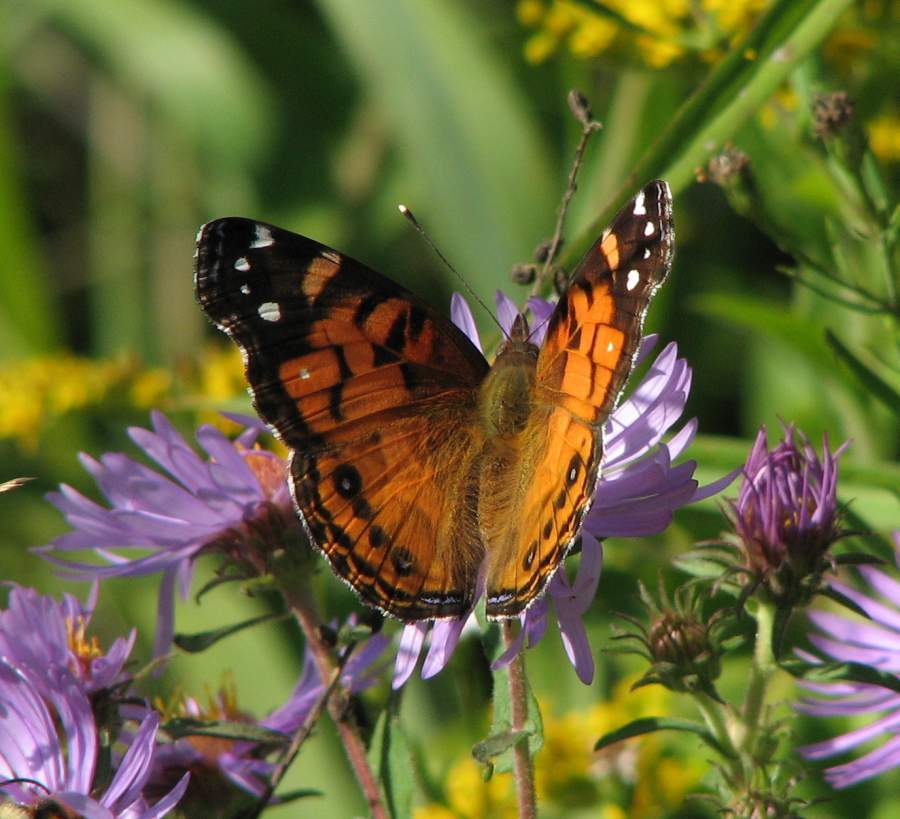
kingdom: Animalia
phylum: Arthropoda
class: Insecta
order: Lepidoptera
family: Nymphalidae
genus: Vanessa
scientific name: Vanessa virginiensis
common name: American lady
